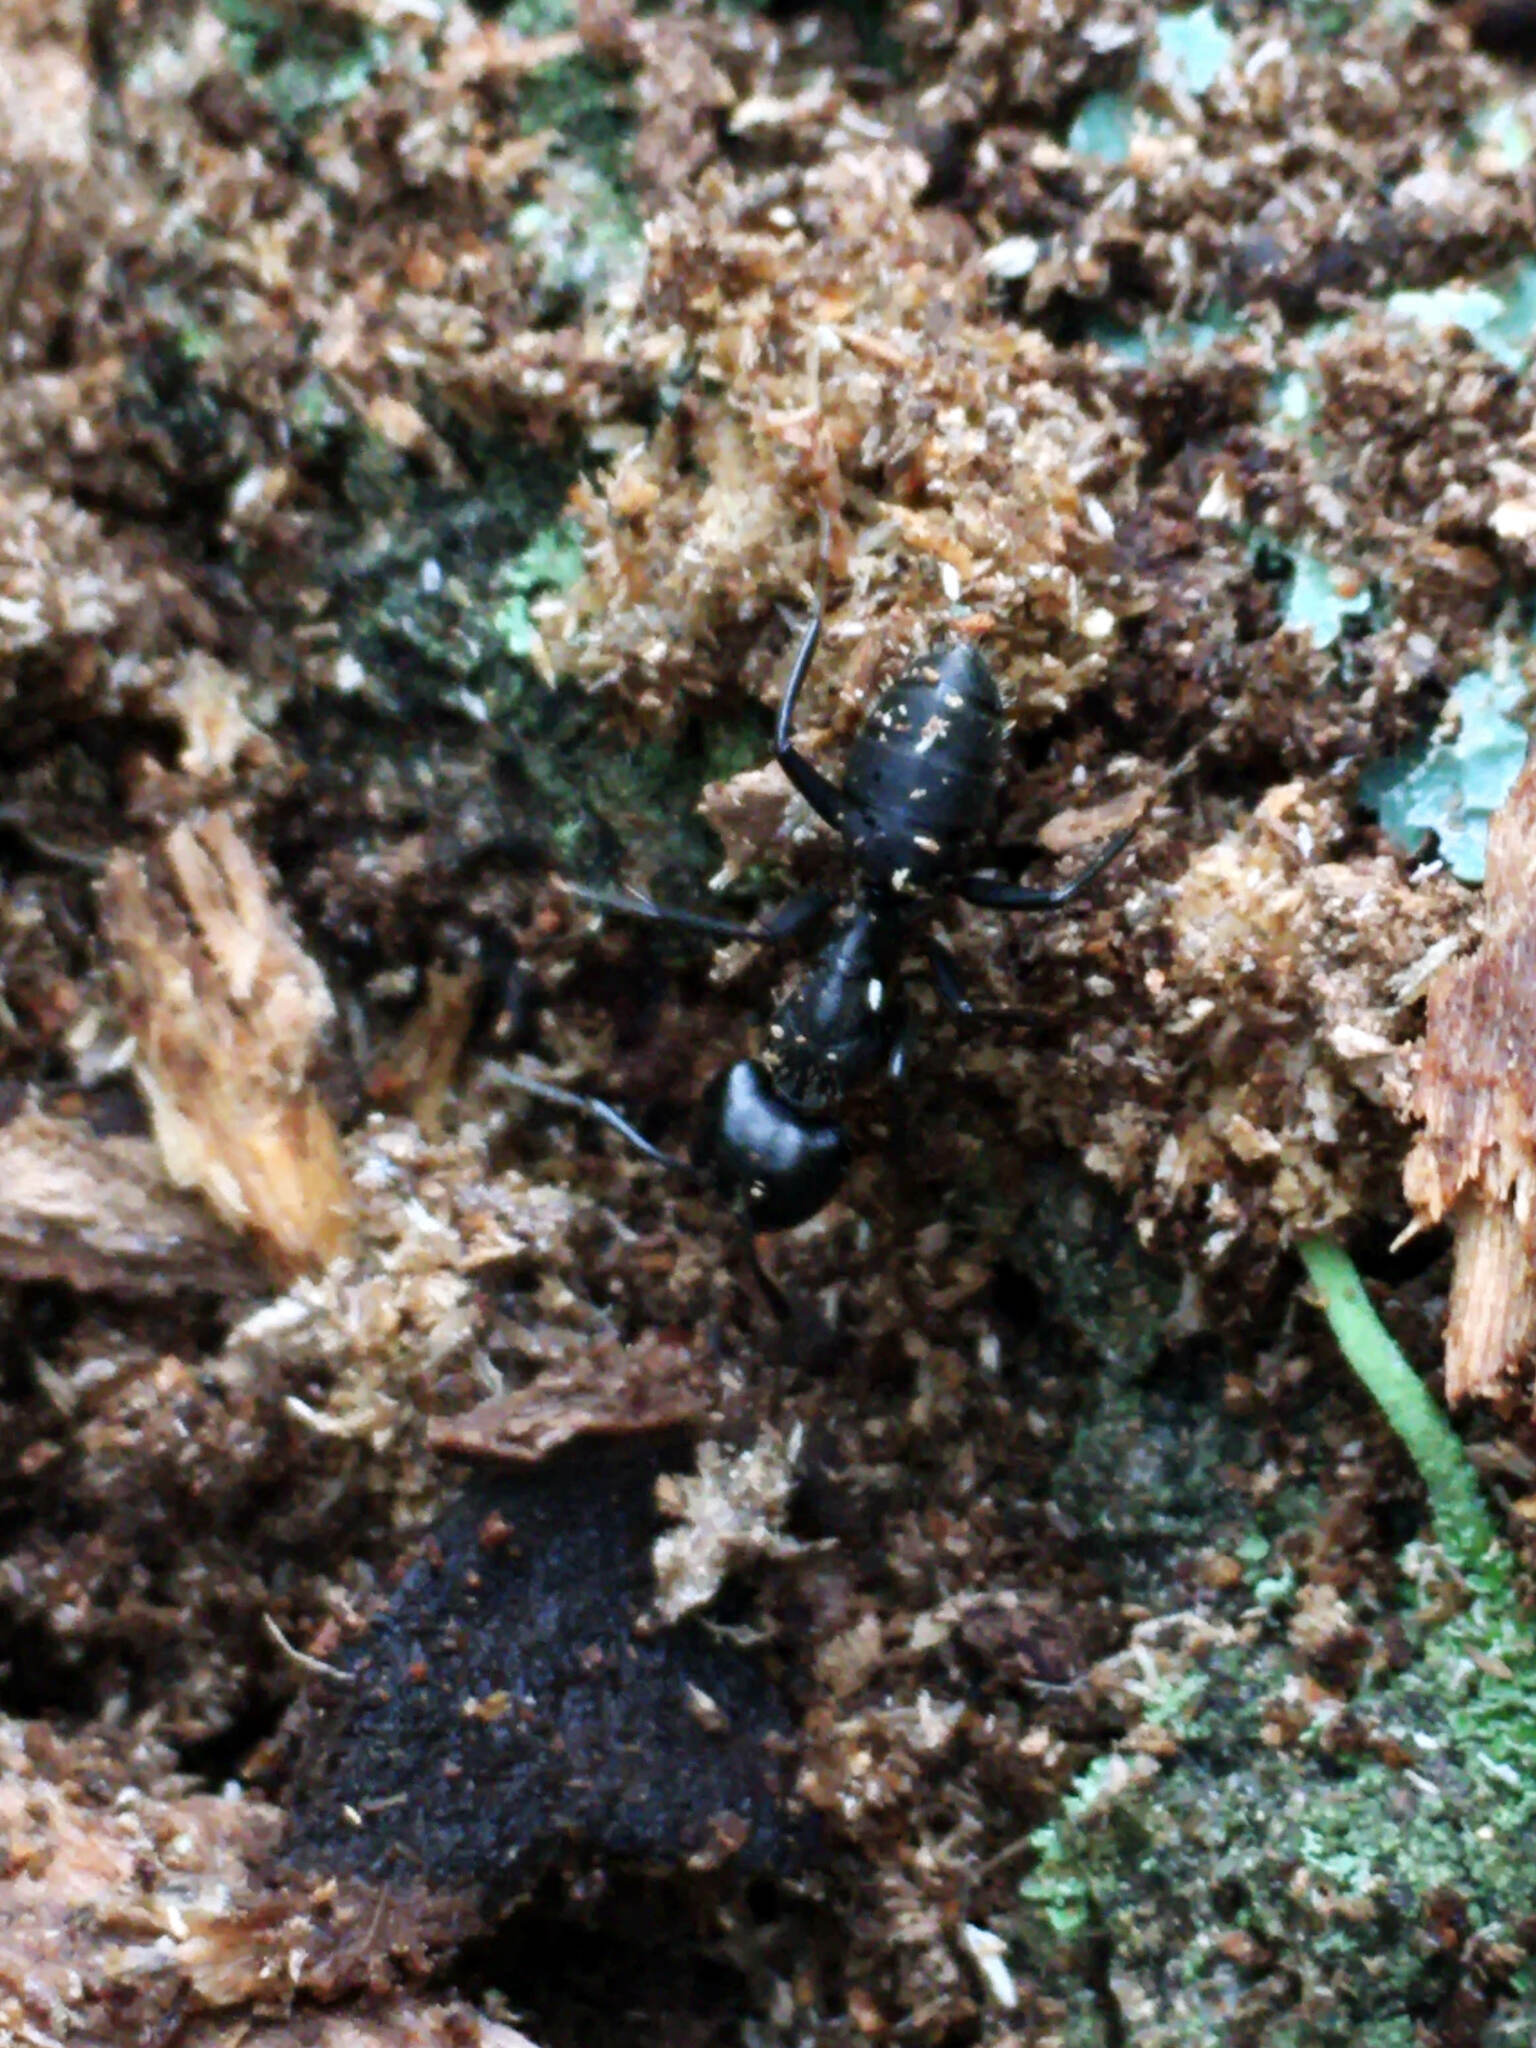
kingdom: Animalia
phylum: Arthropoda
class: Insecta
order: Hymenoptera
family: Formicidae
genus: Camponotus
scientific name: Camponotus vagus
